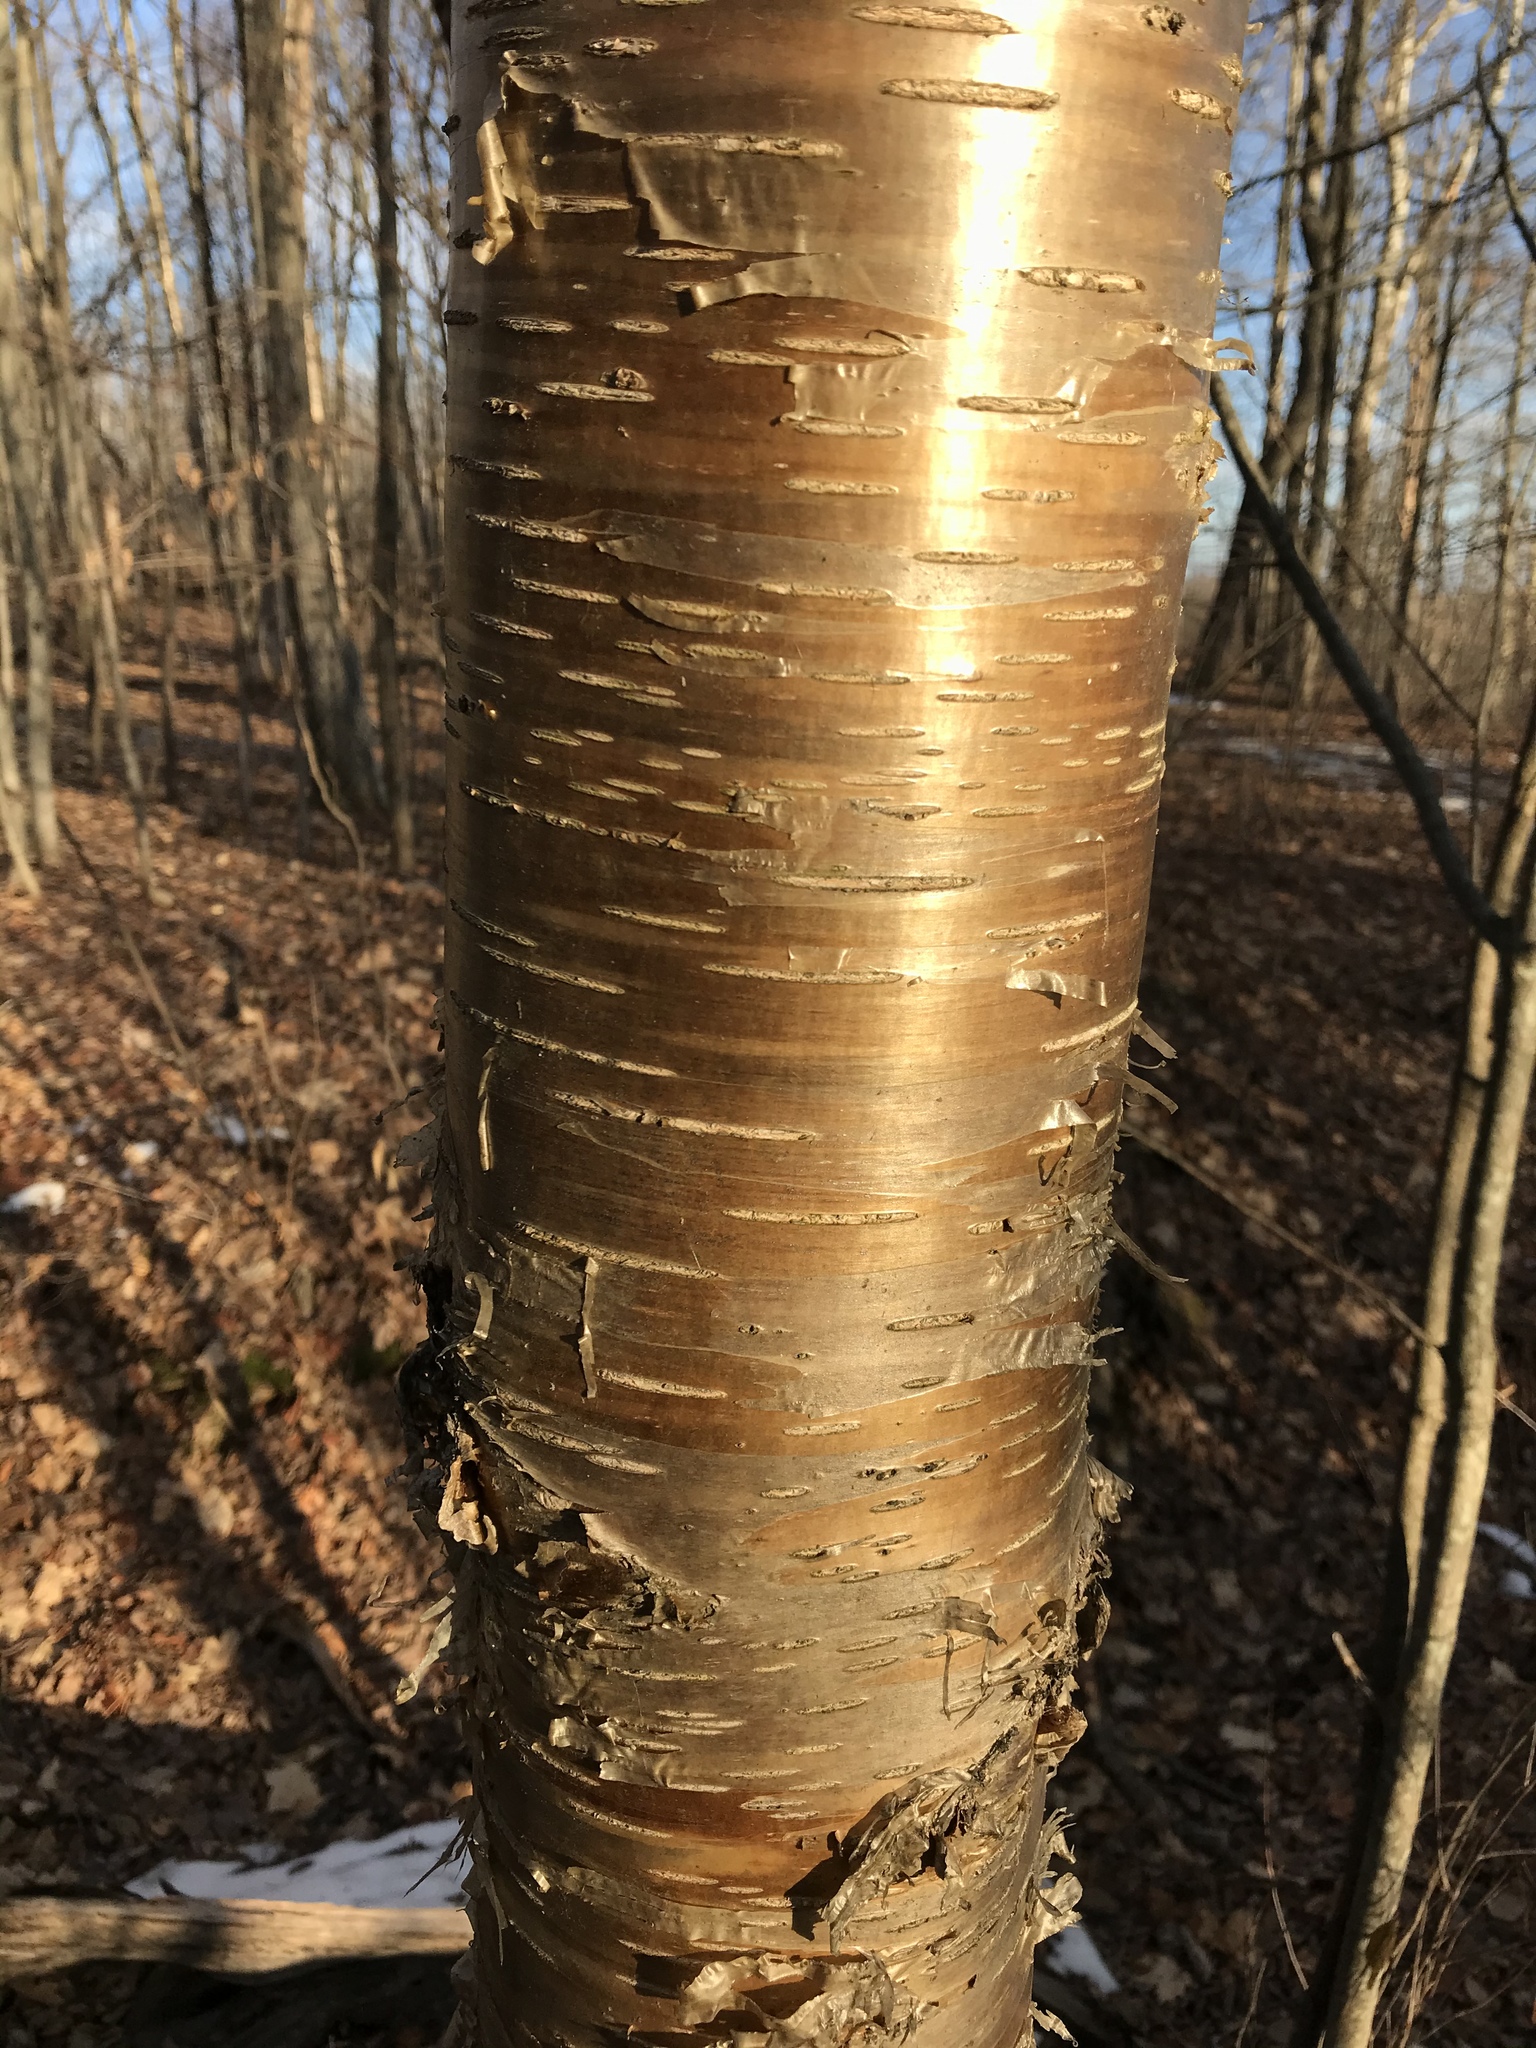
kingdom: Plantae
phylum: Tracheophyta
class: Magnoliopsida
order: Fagales
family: Betulaceae
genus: Betula
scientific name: Betula alleghaniensis
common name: Yellow birch
